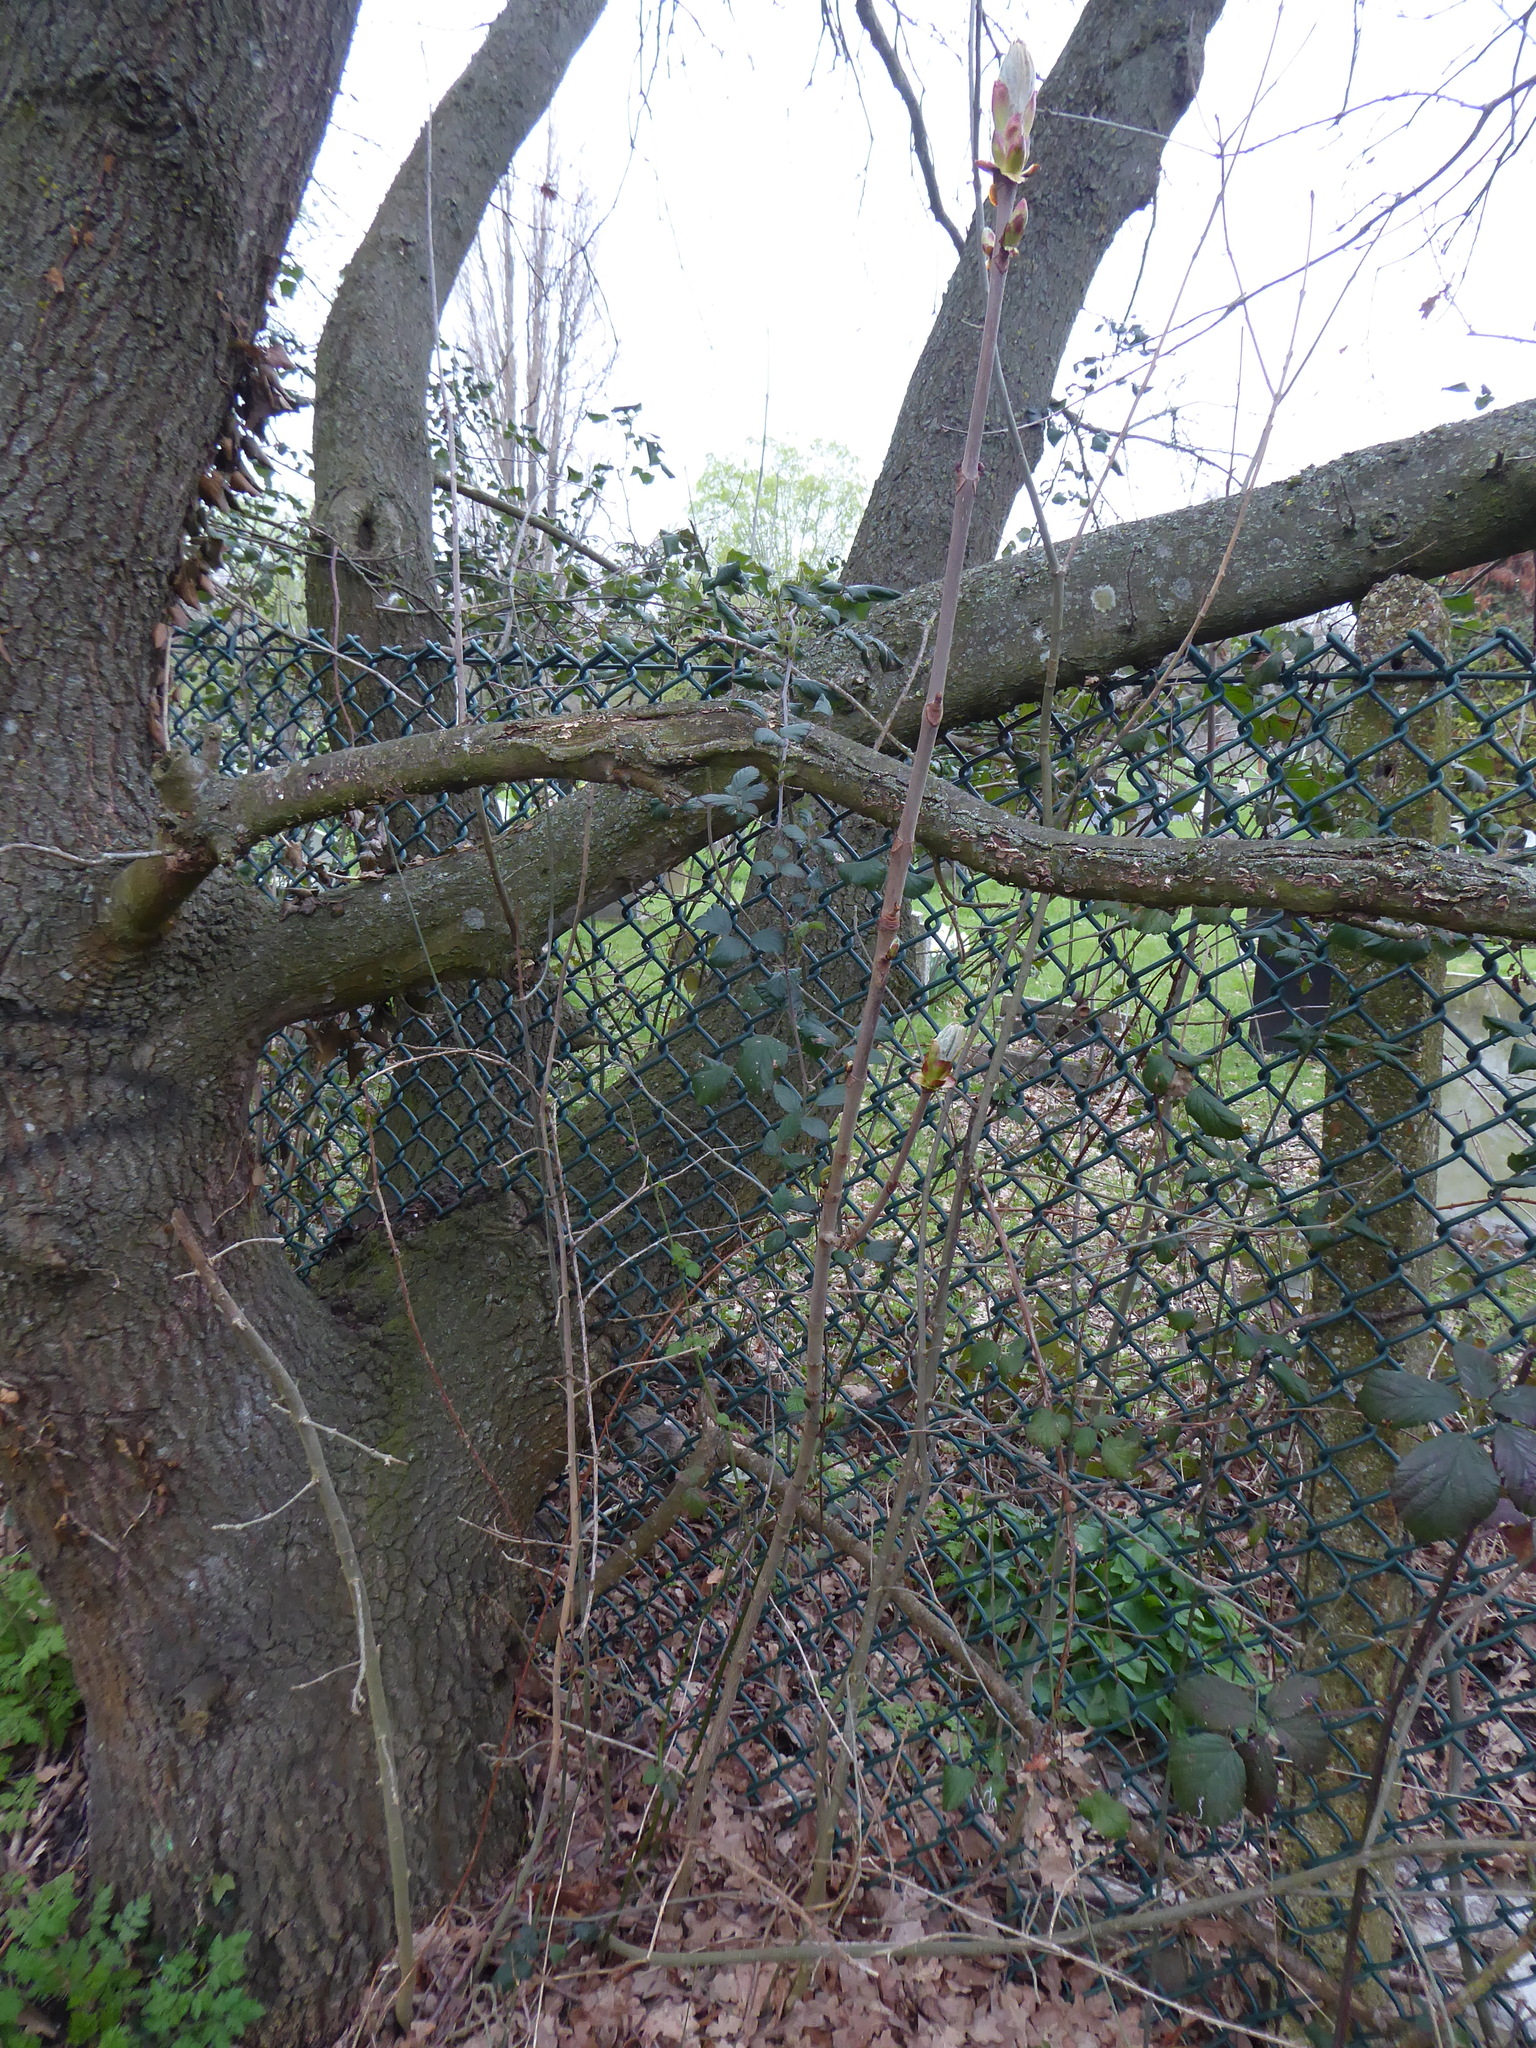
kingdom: Plantae
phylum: Tracheophyta
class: Magnoliopsida
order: Sapindales
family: Sapindaceae
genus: Aesculus
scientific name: Aesculus hippocastanum
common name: Horse-chestnut
